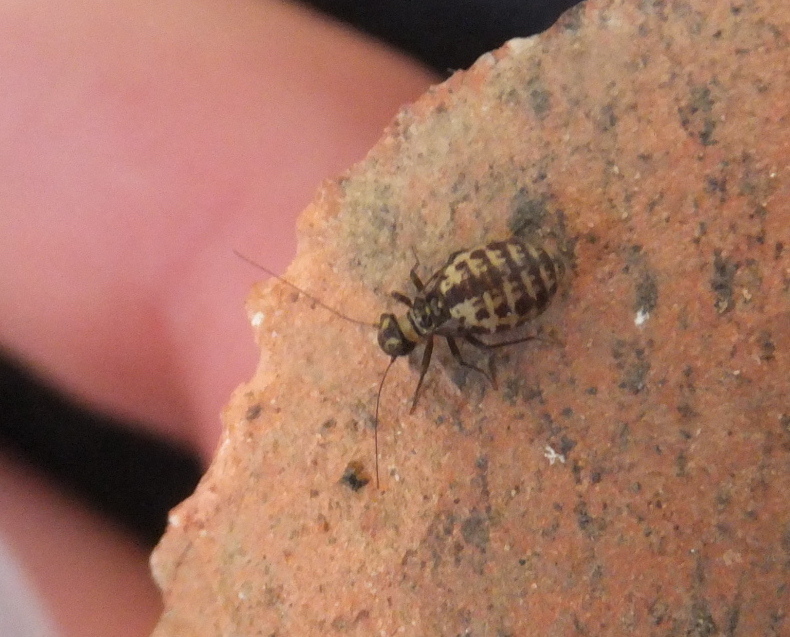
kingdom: Animalia
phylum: Arthropoda
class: Insecta
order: Psocodea
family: Psocidae
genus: Neopsocus
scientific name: Neopsocus rhenanus
